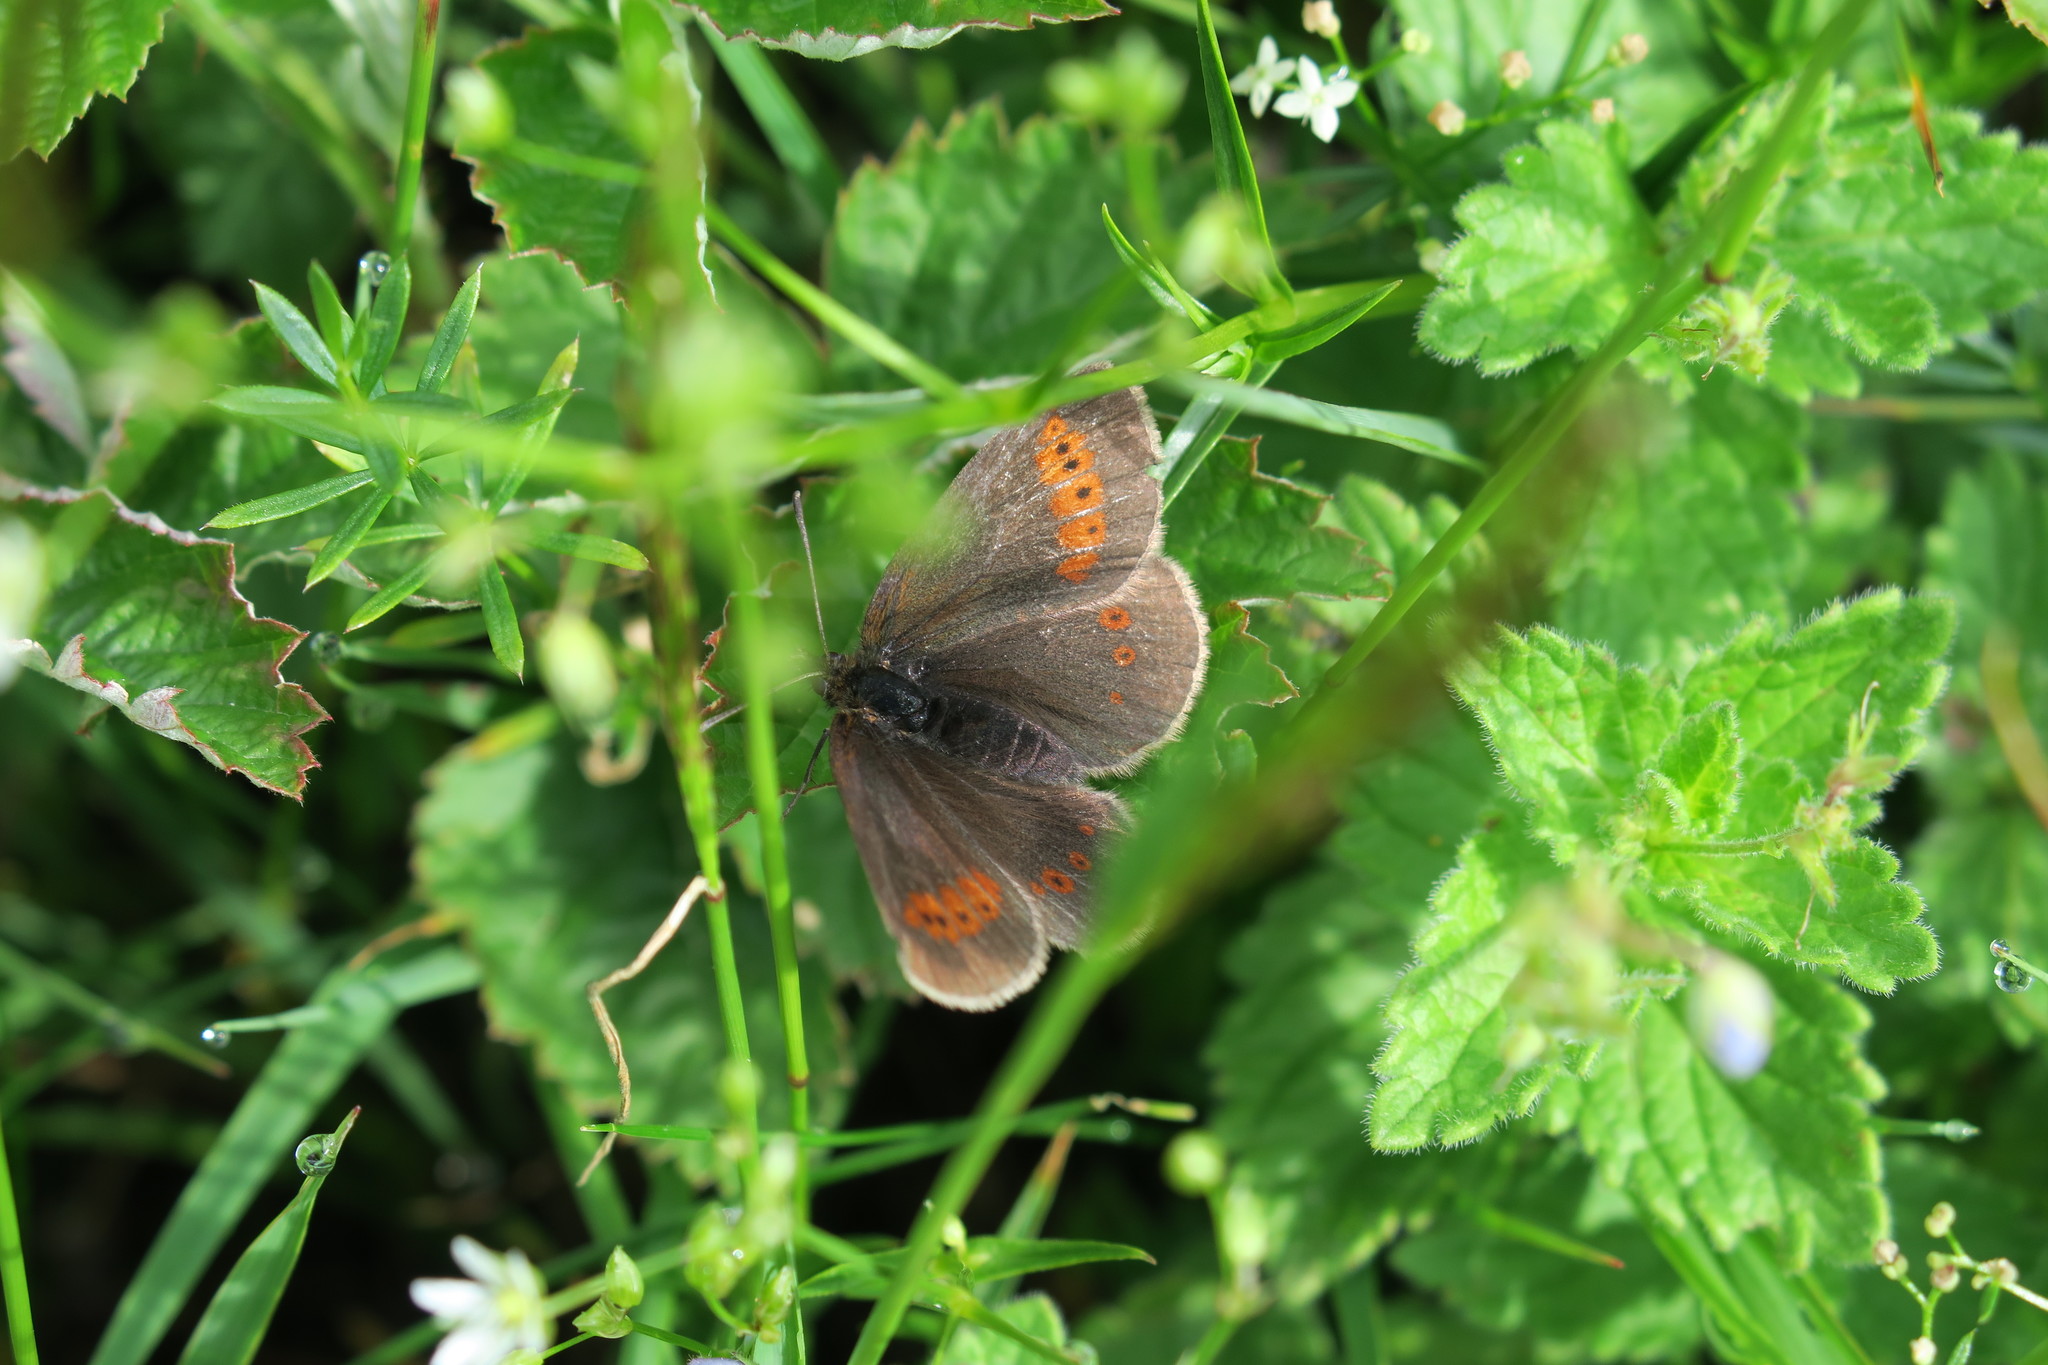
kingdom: Animalia
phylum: Arthropoda
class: Insecta
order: Lepidoptera
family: Nymphalidae
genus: Erebia
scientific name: Erebia melampus
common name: Lesser mountain ringlet
